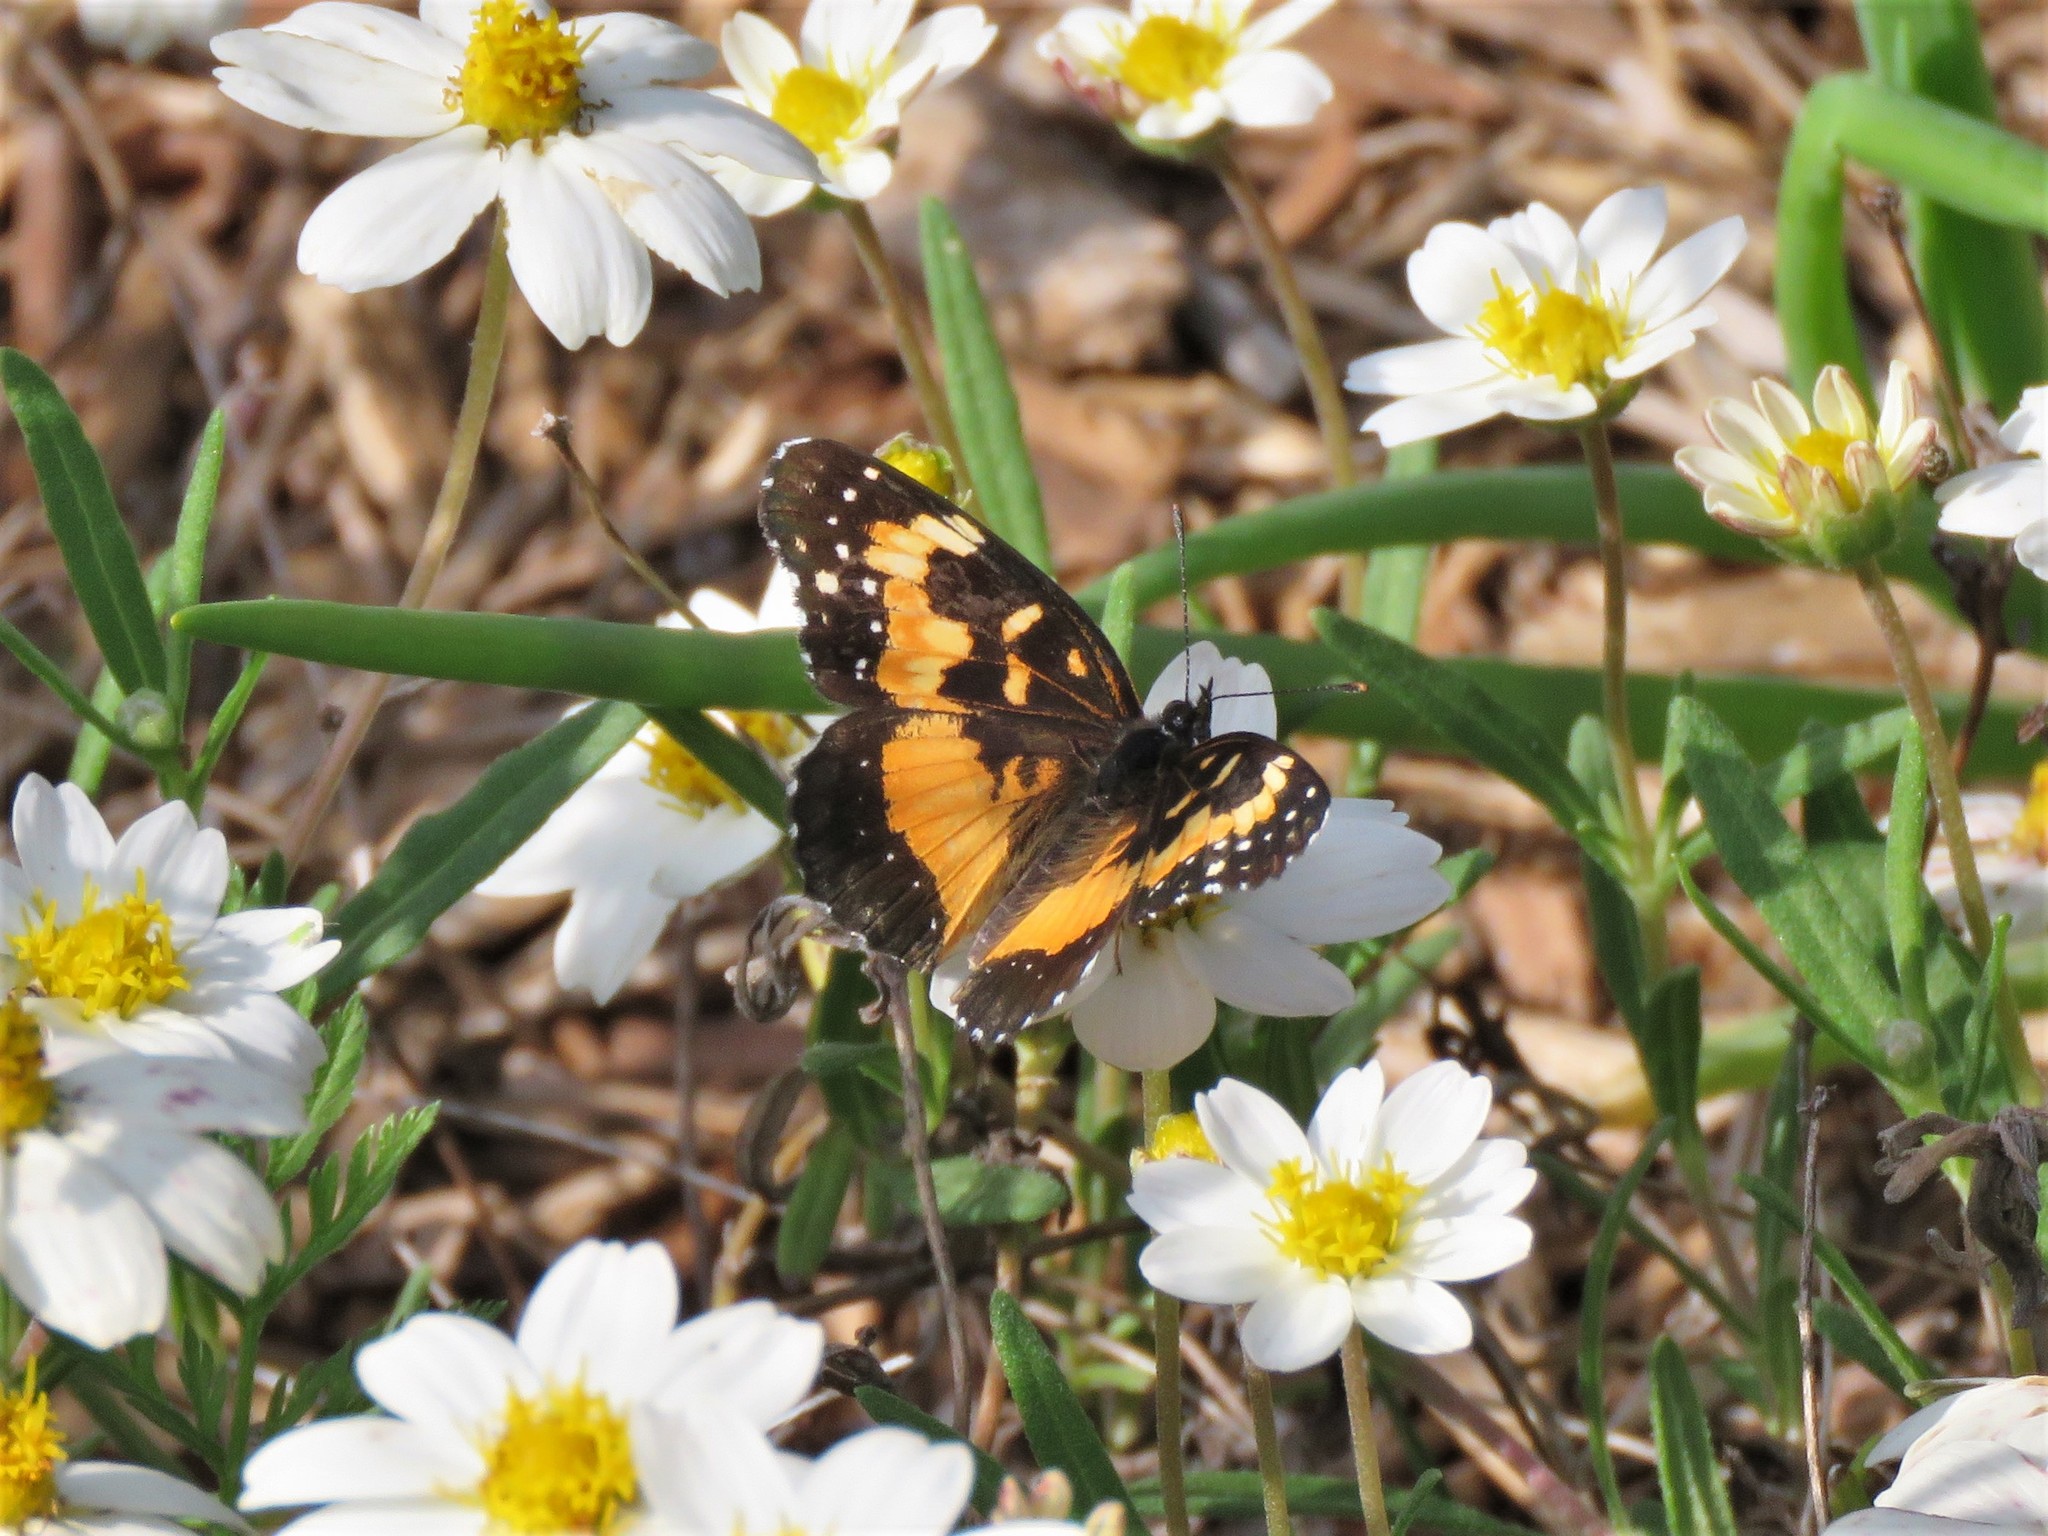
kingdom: Animalia
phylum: Arthropoda
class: Insecta
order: Lepidoptera
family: Nymphalidae
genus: Chlosyne
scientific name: Chlosyne lacinia
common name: Bordered patch
